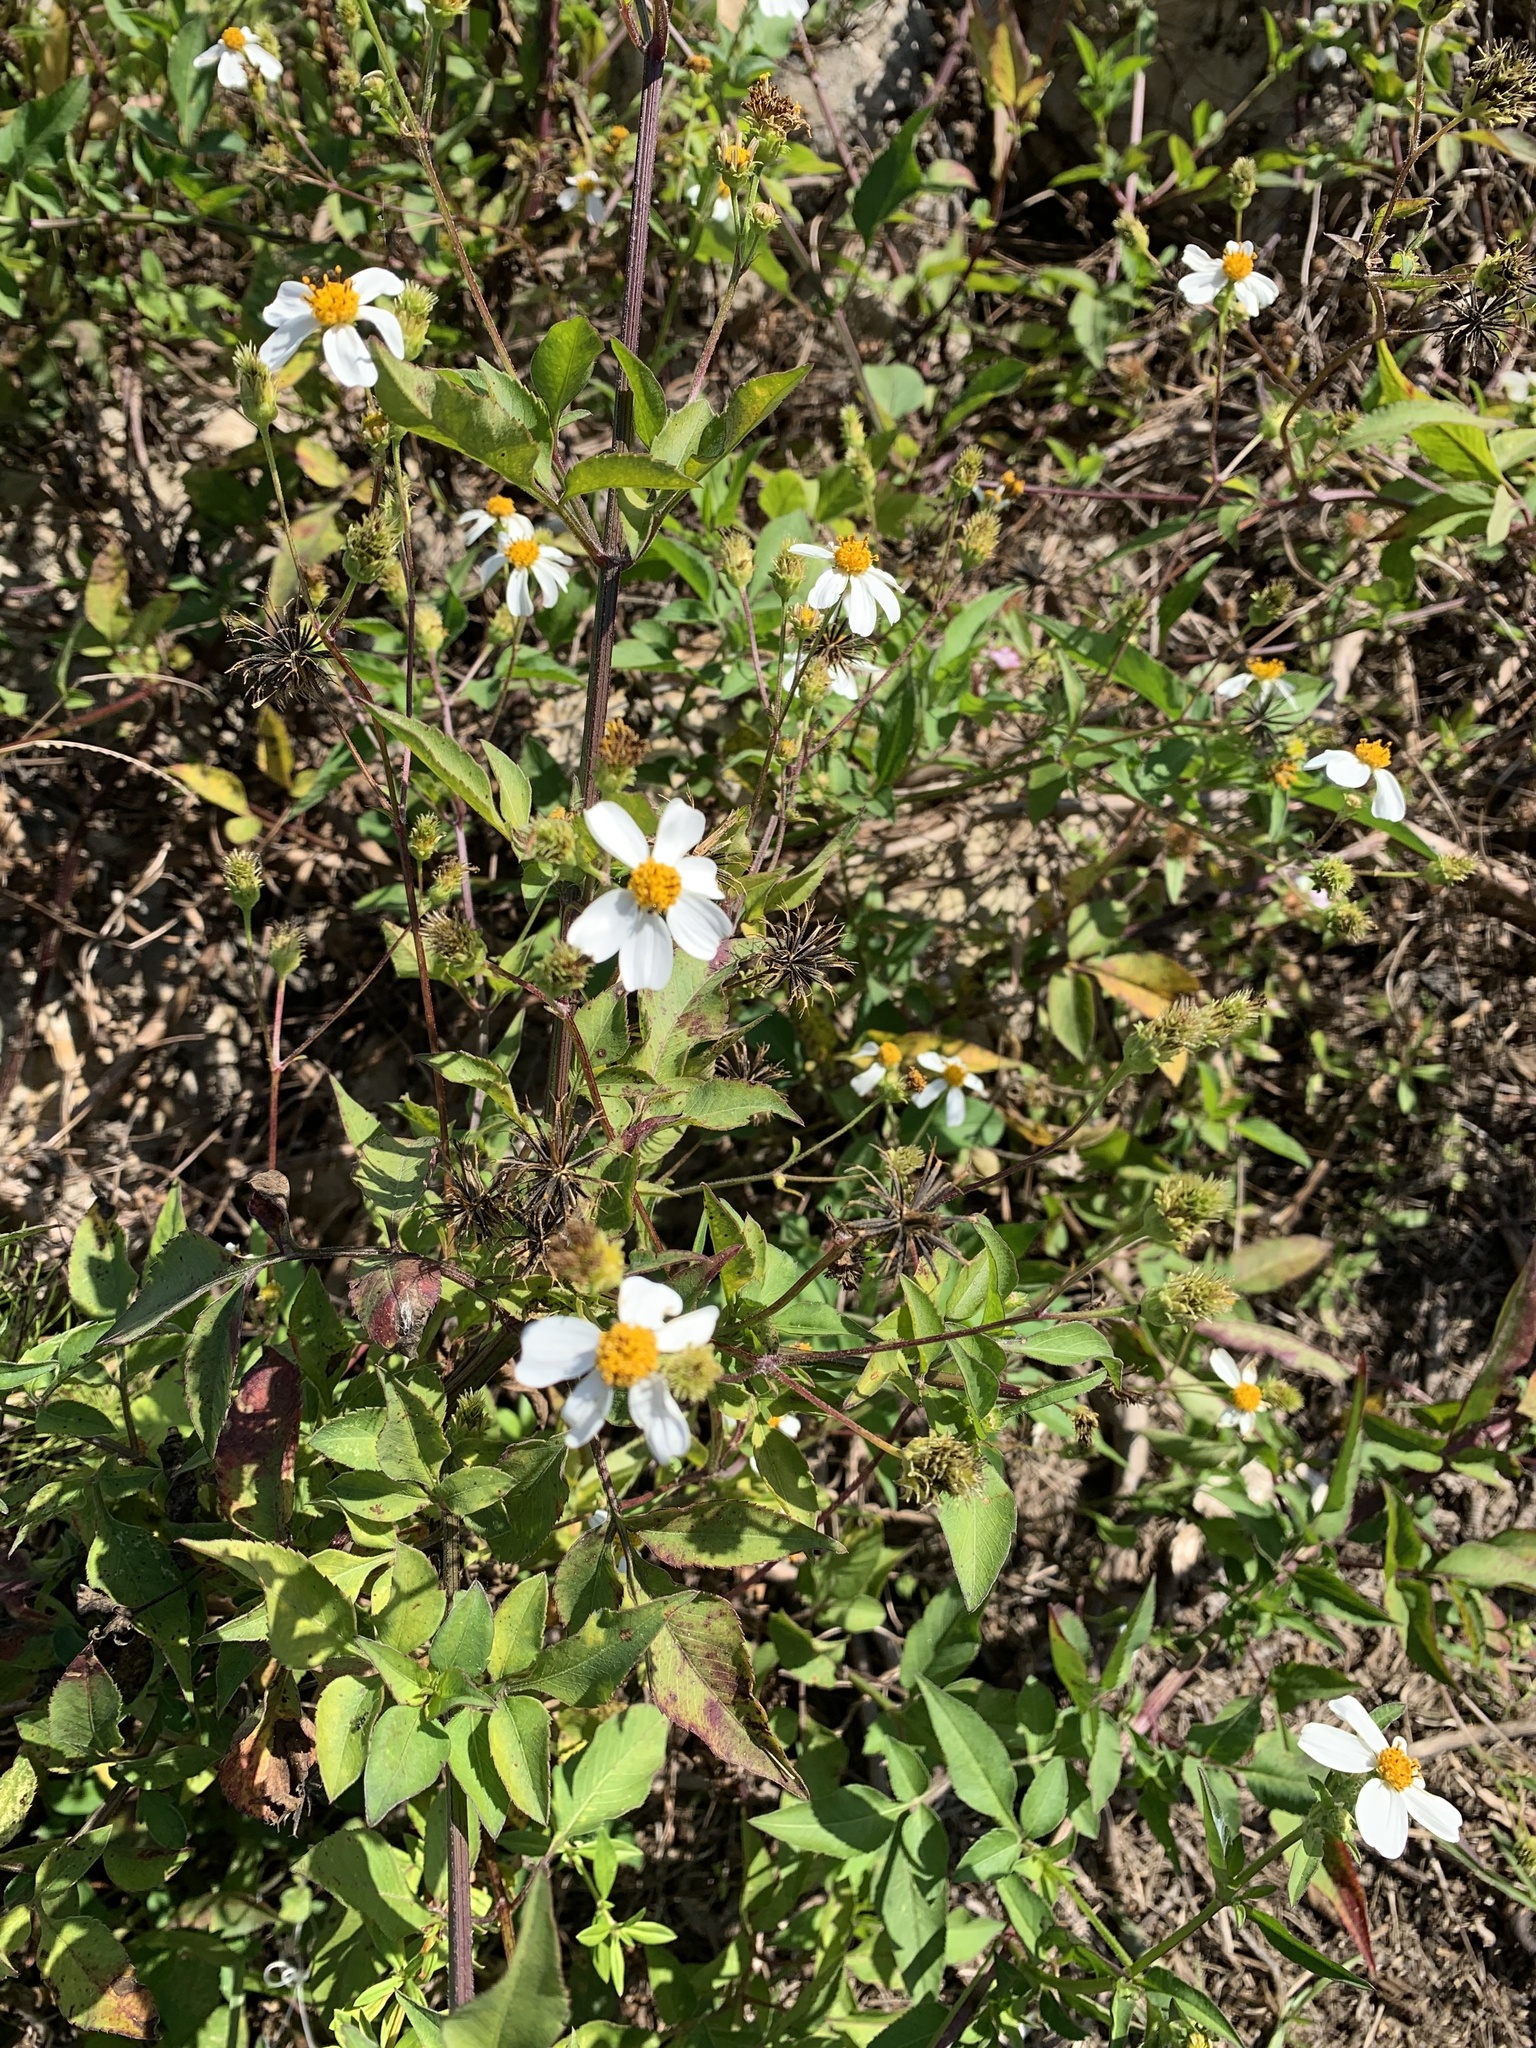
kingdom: Plantae
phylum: Tracheophyta
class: Magnoliopsida
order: Asterales
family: Asteraceae
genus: Bidens
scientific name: Bidens alba
